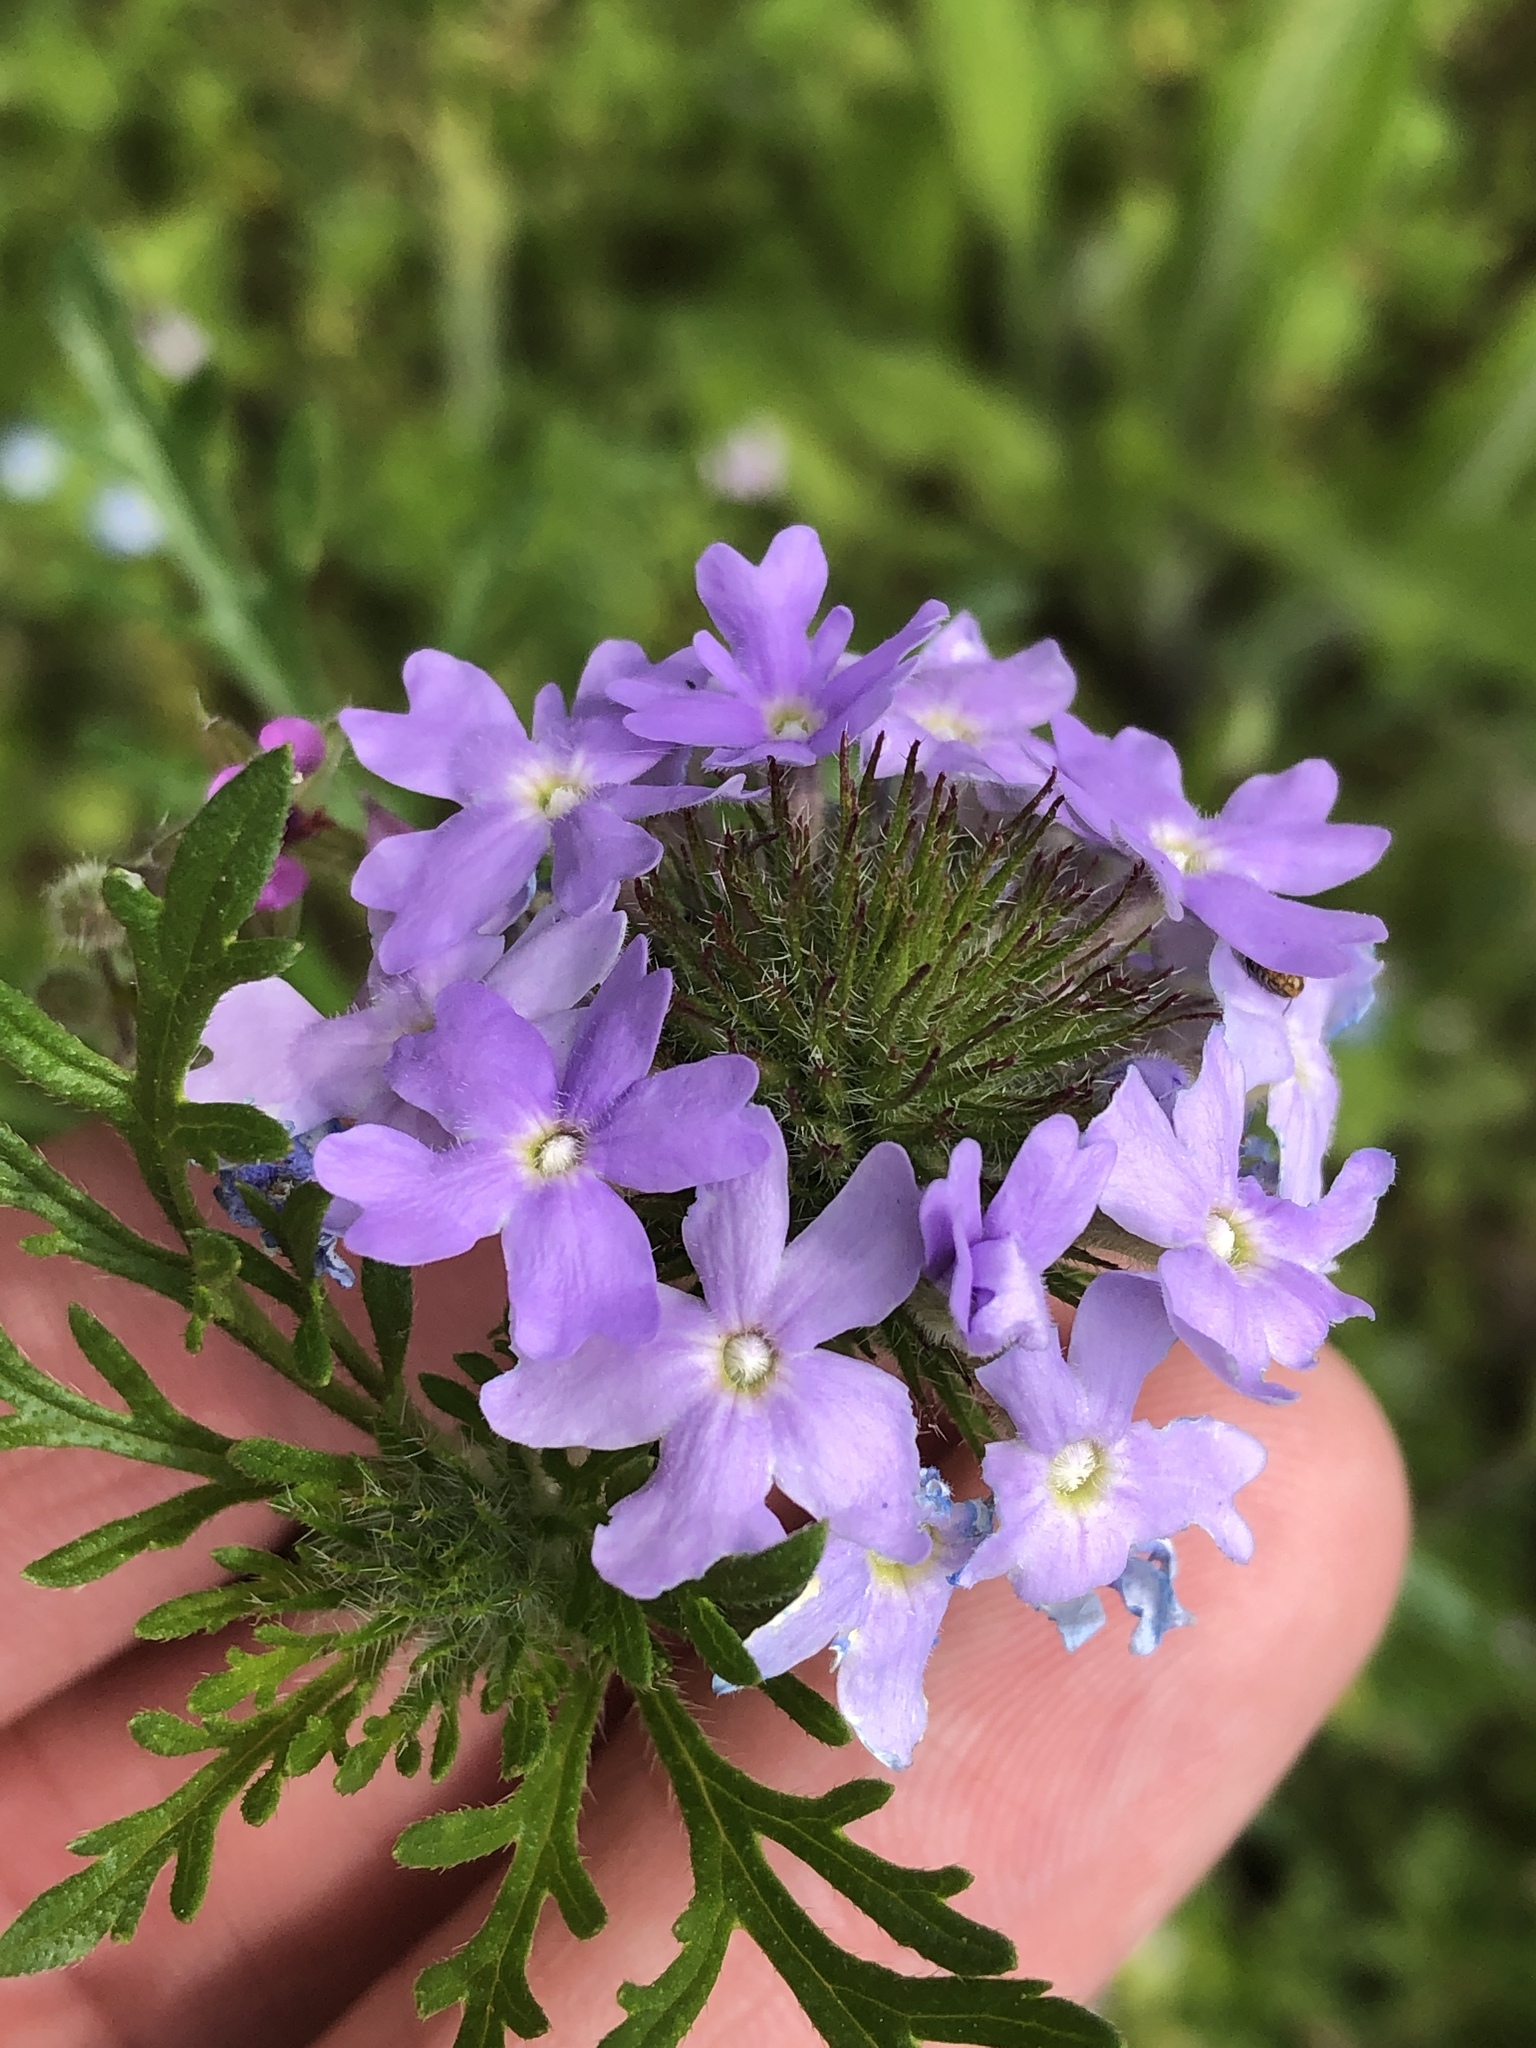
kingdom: Plantae
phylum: Tracheophyta
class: Magnoliopsida
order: Lamiales
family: Verbenaceae
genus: Verbena
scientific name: Verbena bipinnatifida
